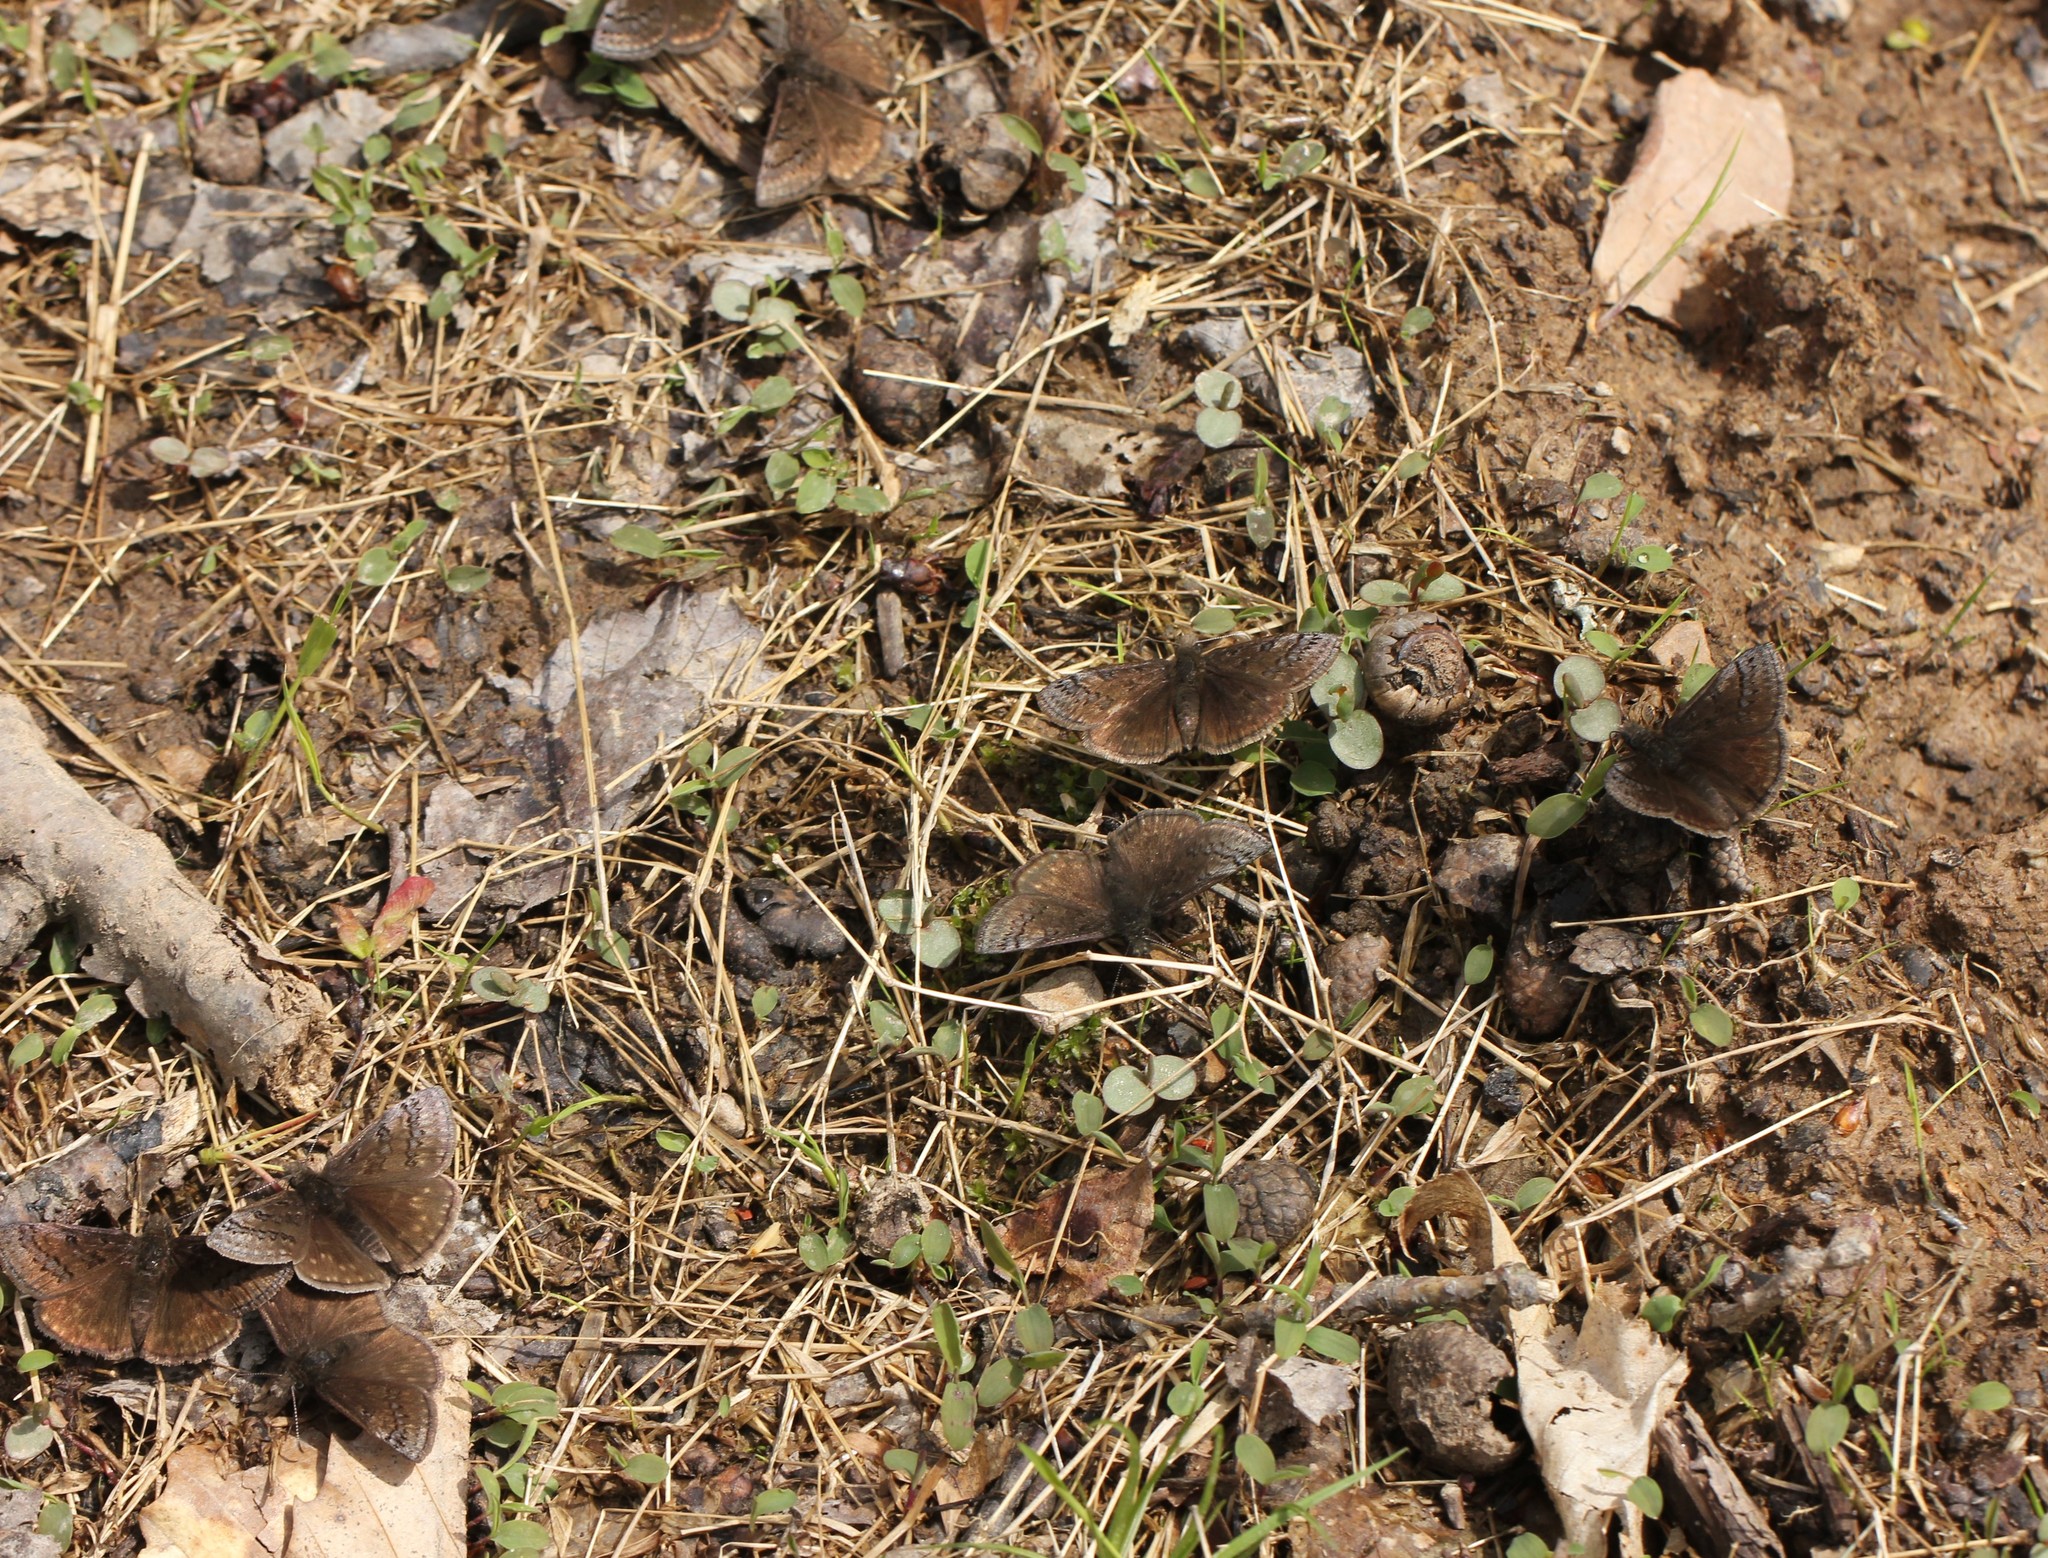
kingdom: Animalia
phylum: Arthropoda
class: Insecta
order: Lepidoptera
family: Hesperiidae
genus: Erynnis
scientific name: Erynnis brizo
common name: Sleepy duskywing
